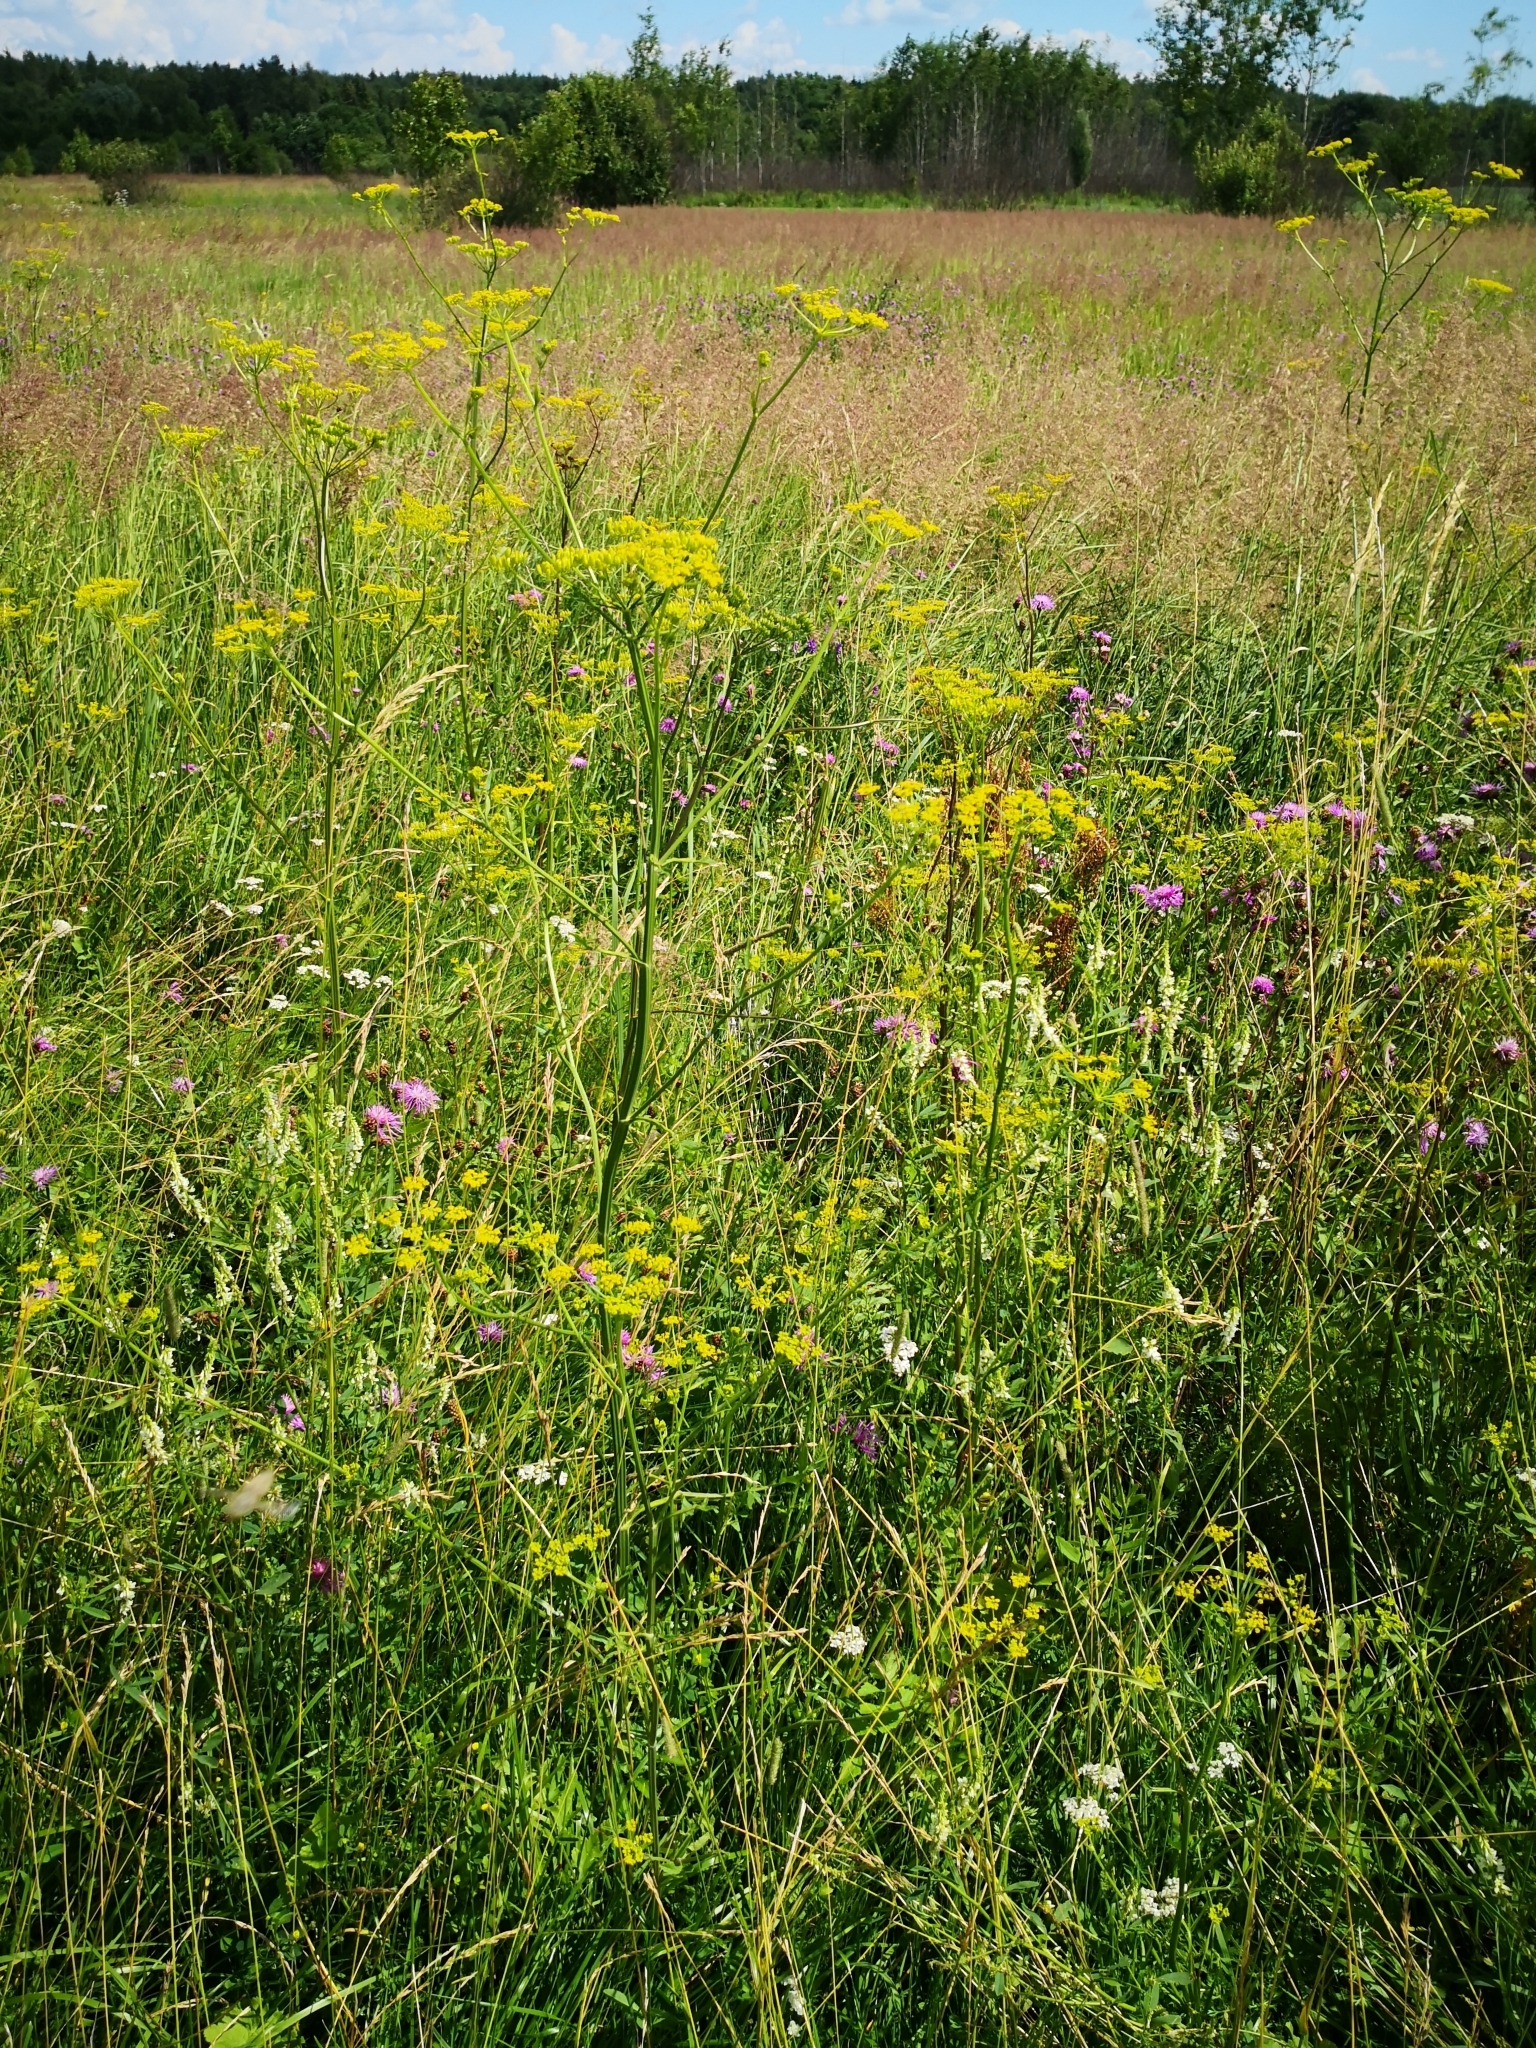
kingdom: Plantae
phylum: Tracheophyta
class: Magnoliopsida
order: Apiales
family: Apiaceae
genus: Pastinaca
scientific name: Pastinaca sativa
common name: Wild parsnip
